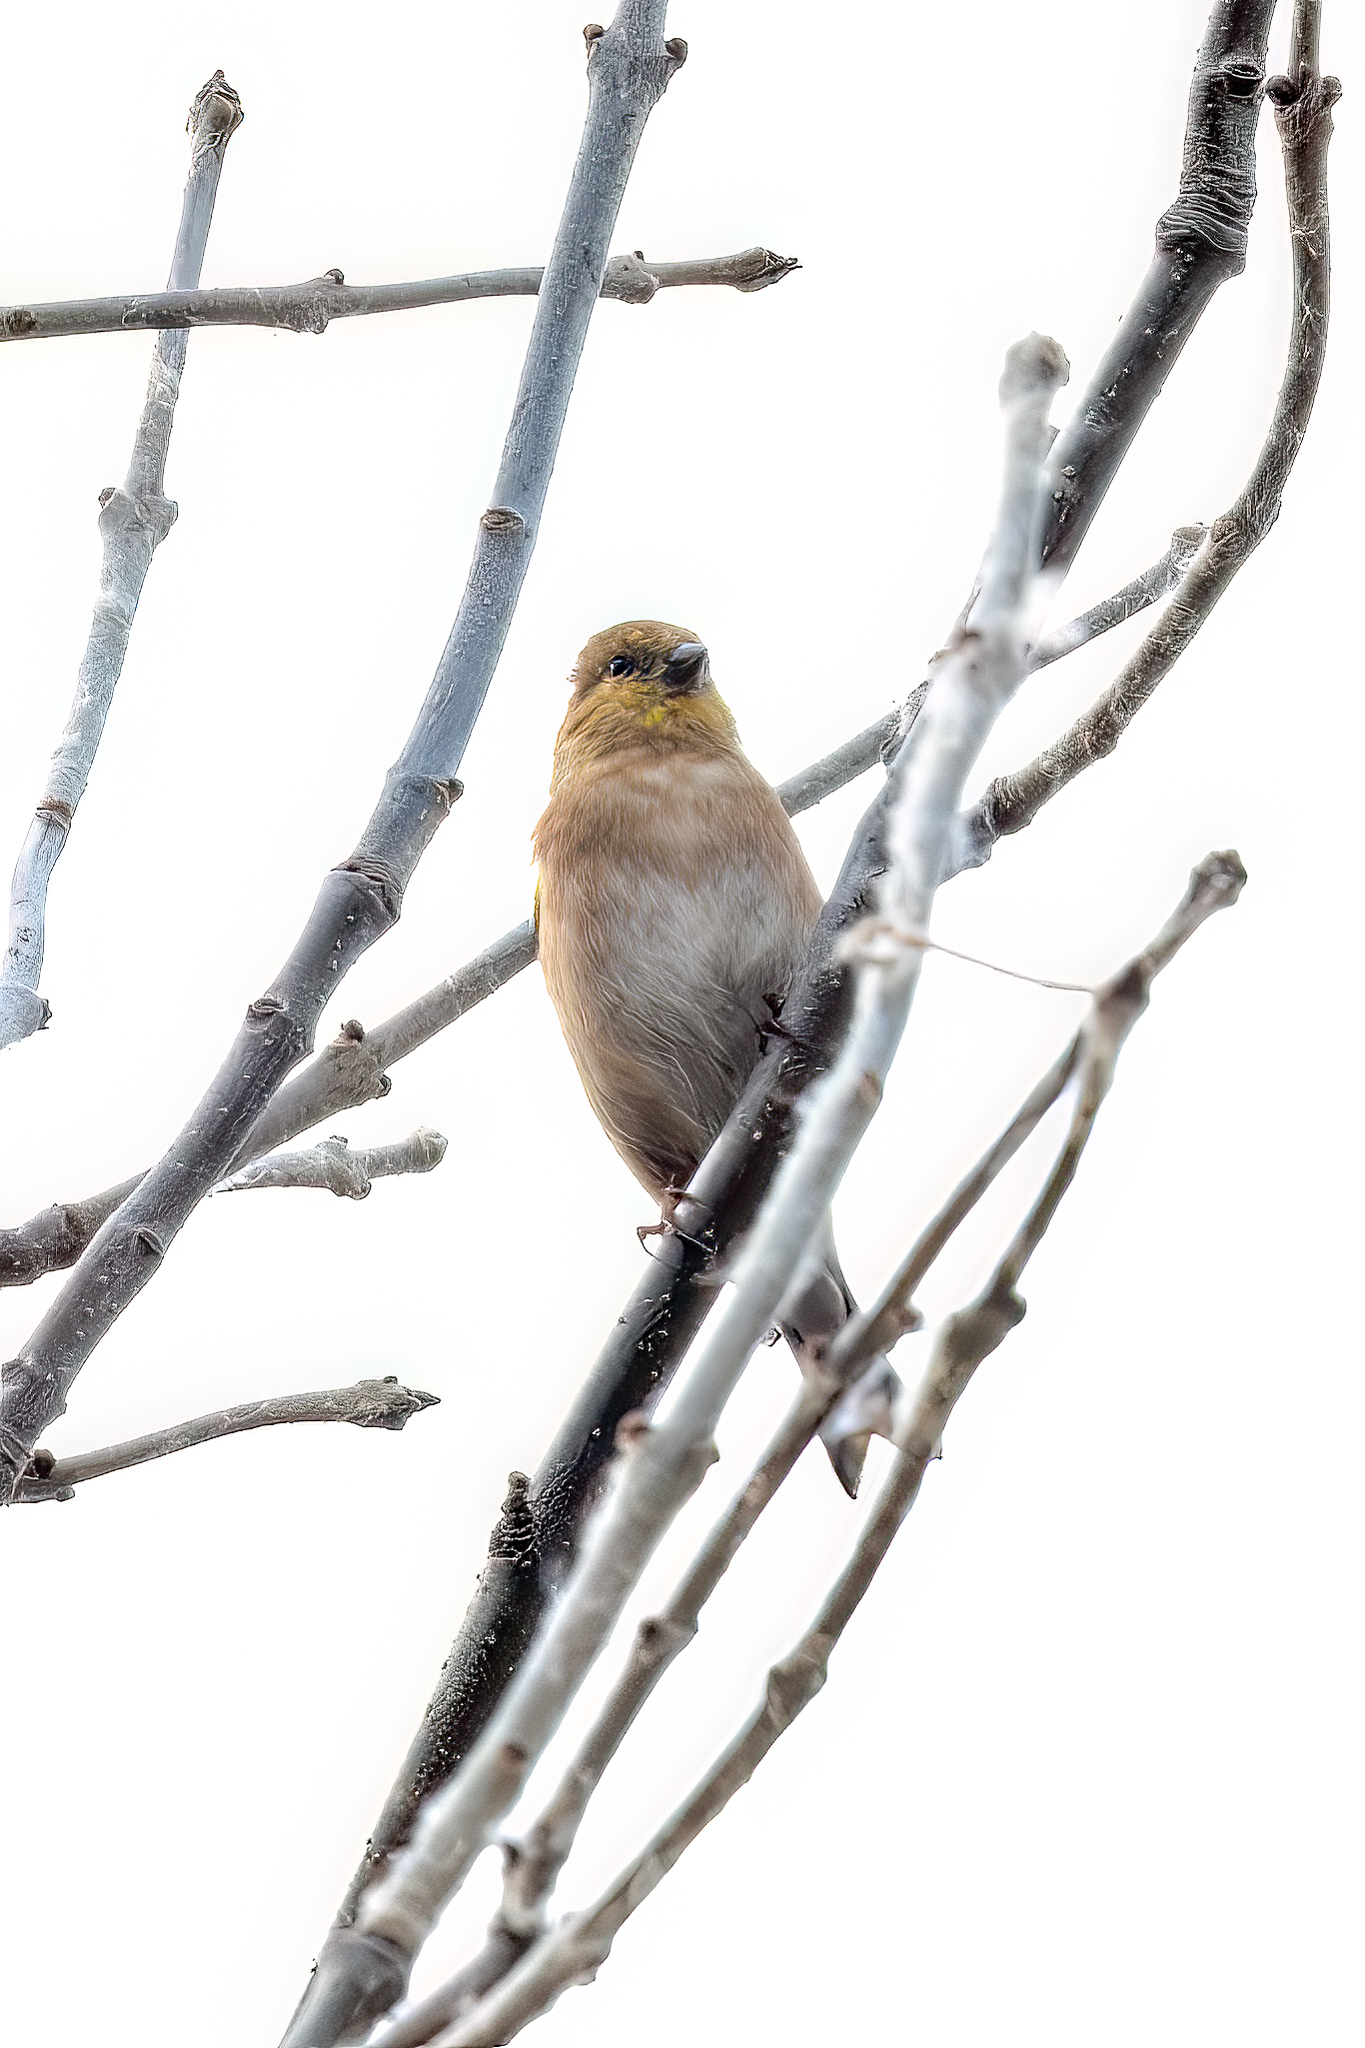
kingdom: Animalia
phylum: Chordata
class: Aves
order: Passeriformes
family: Fringillidae
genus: Spinus
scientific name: Spinus tristis
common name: American goldfinch
